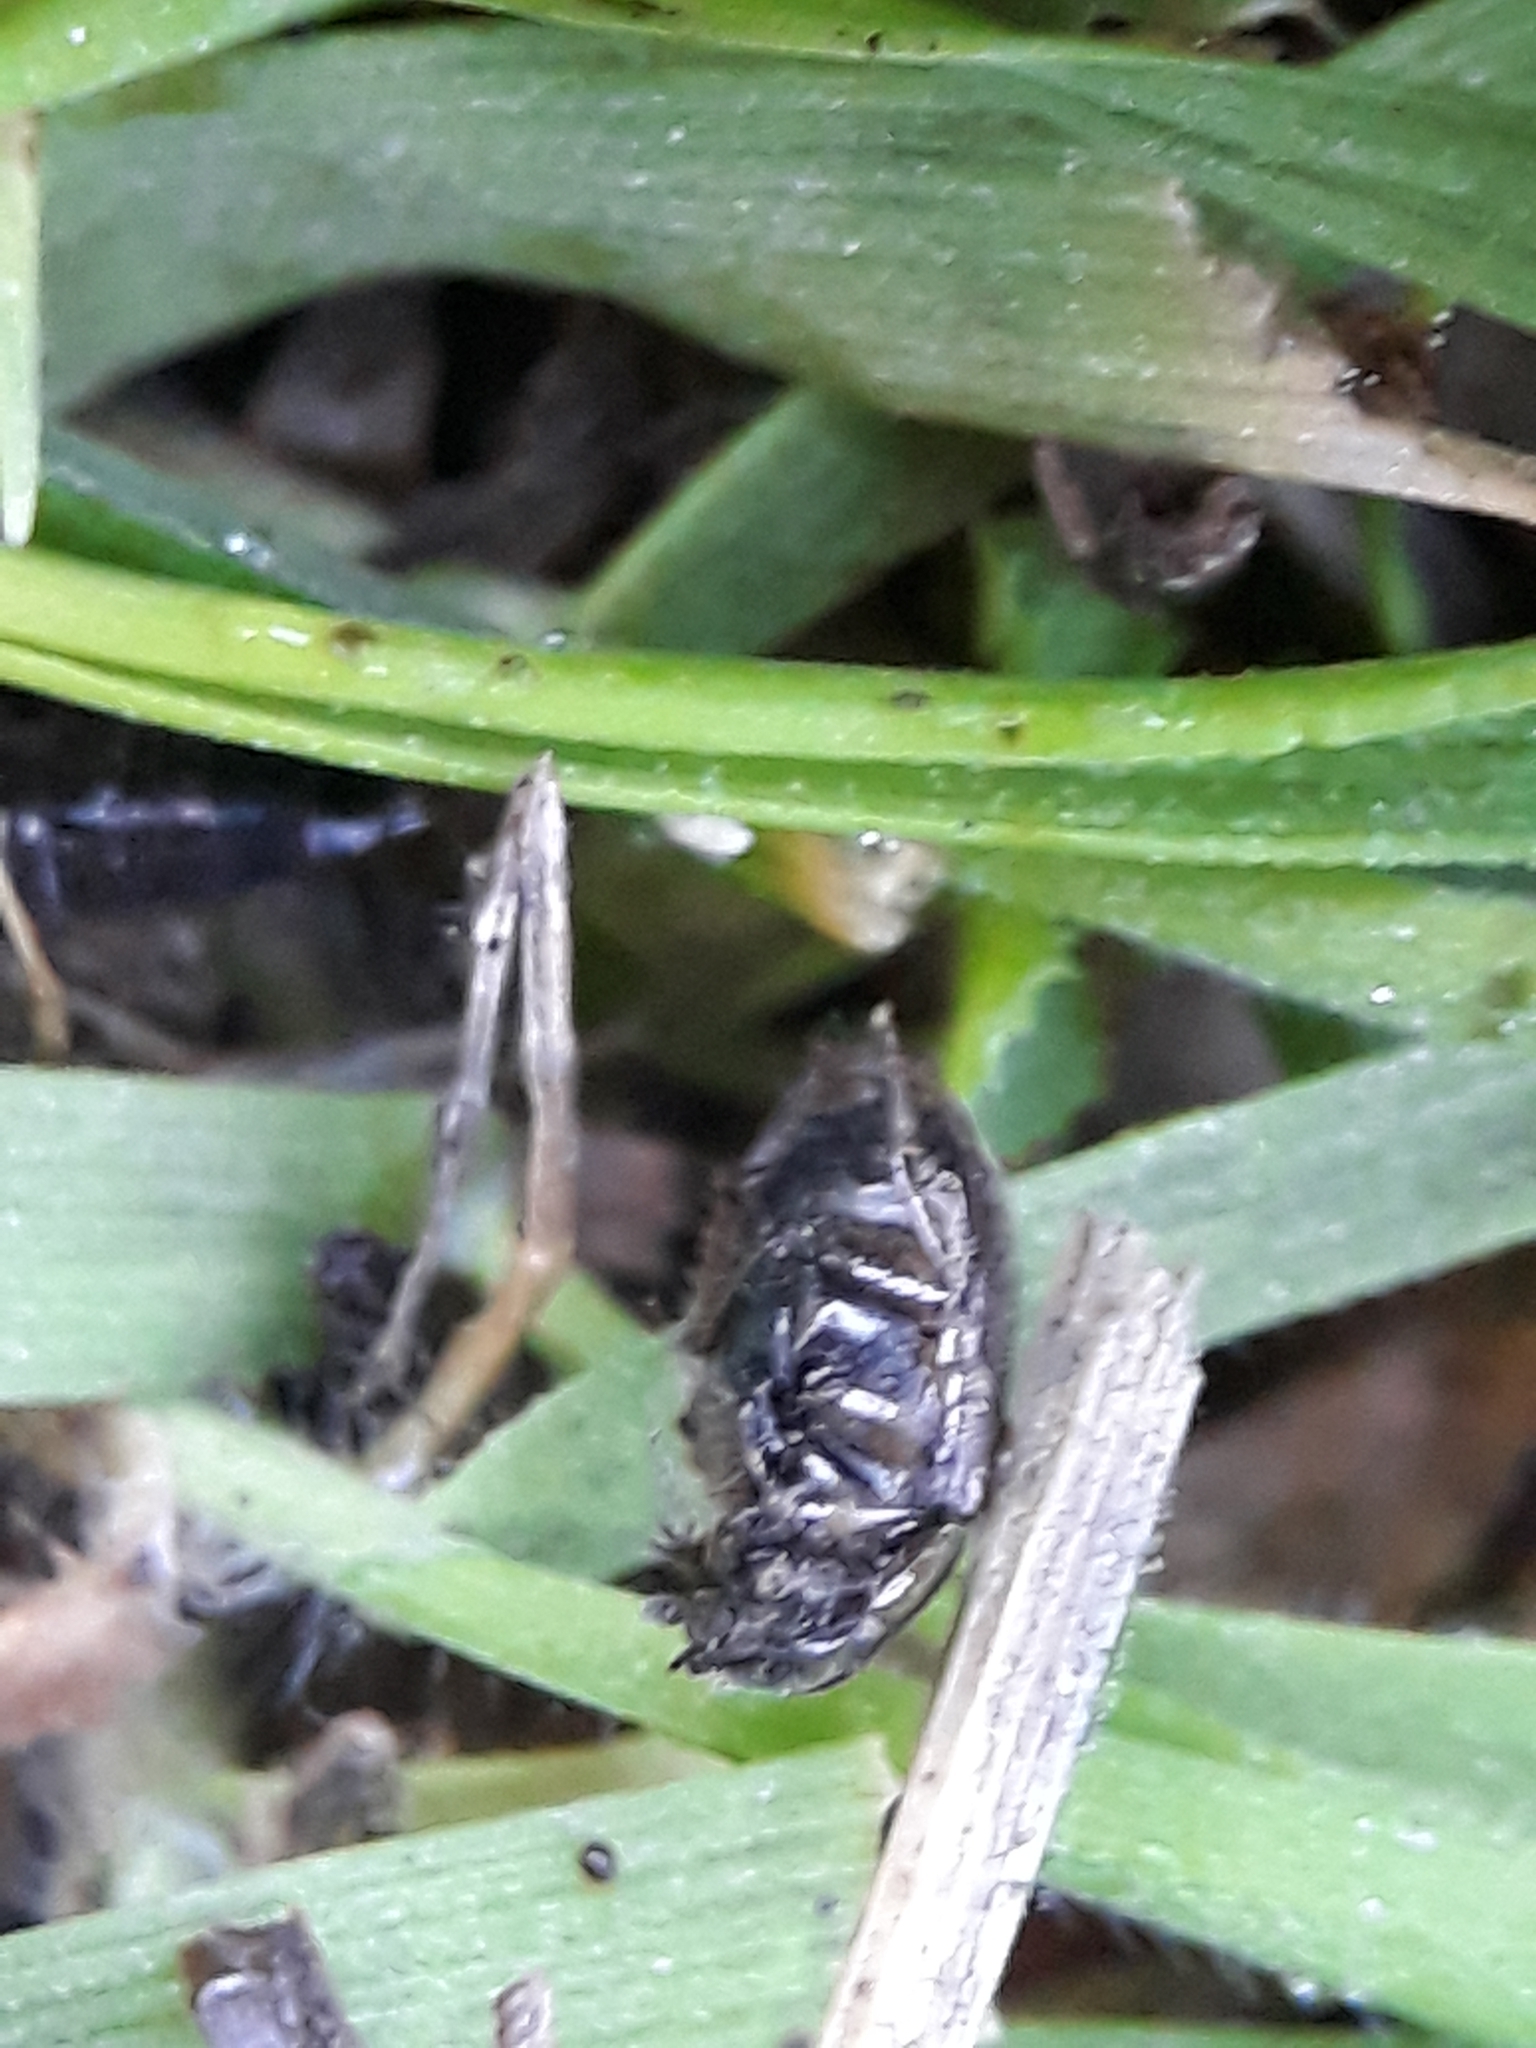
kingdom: Animalia
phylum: Arthropoda
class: Insecta
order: Coleoptera
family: Scarabaeidae
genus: Nimbus
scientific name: Nimbus contaminatus
